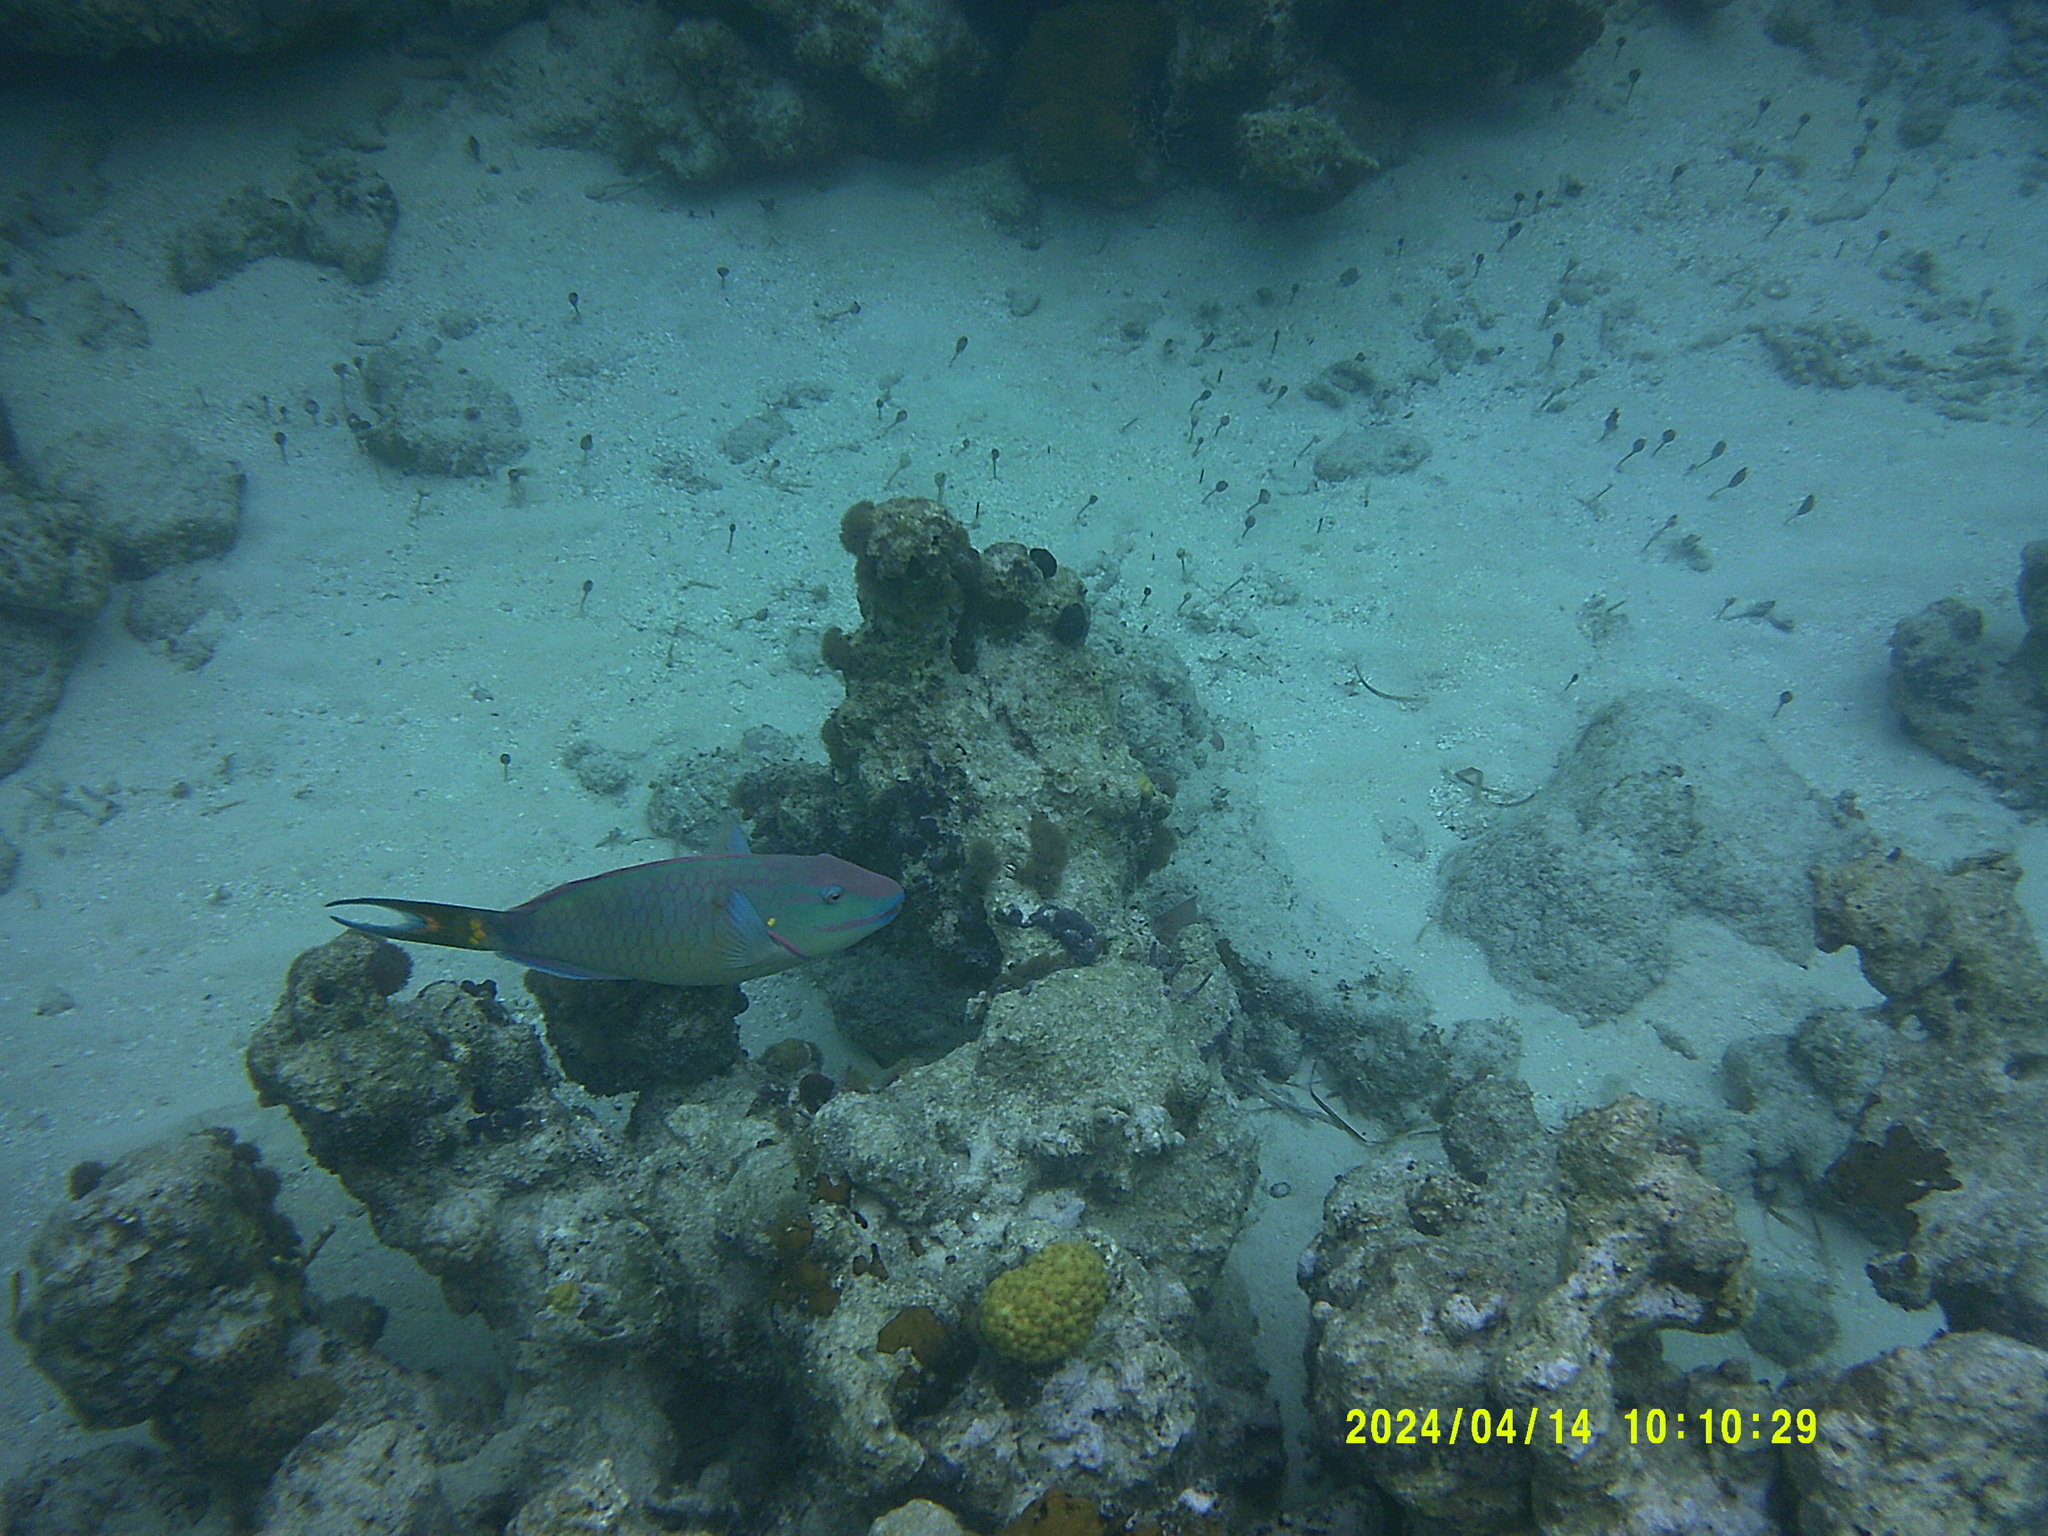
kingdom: Animalia
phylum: Chordata
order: Perciformes
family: Scaridae
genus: Sparisoma
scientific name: Sparisoma viride
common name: Stoplight parrotfish
